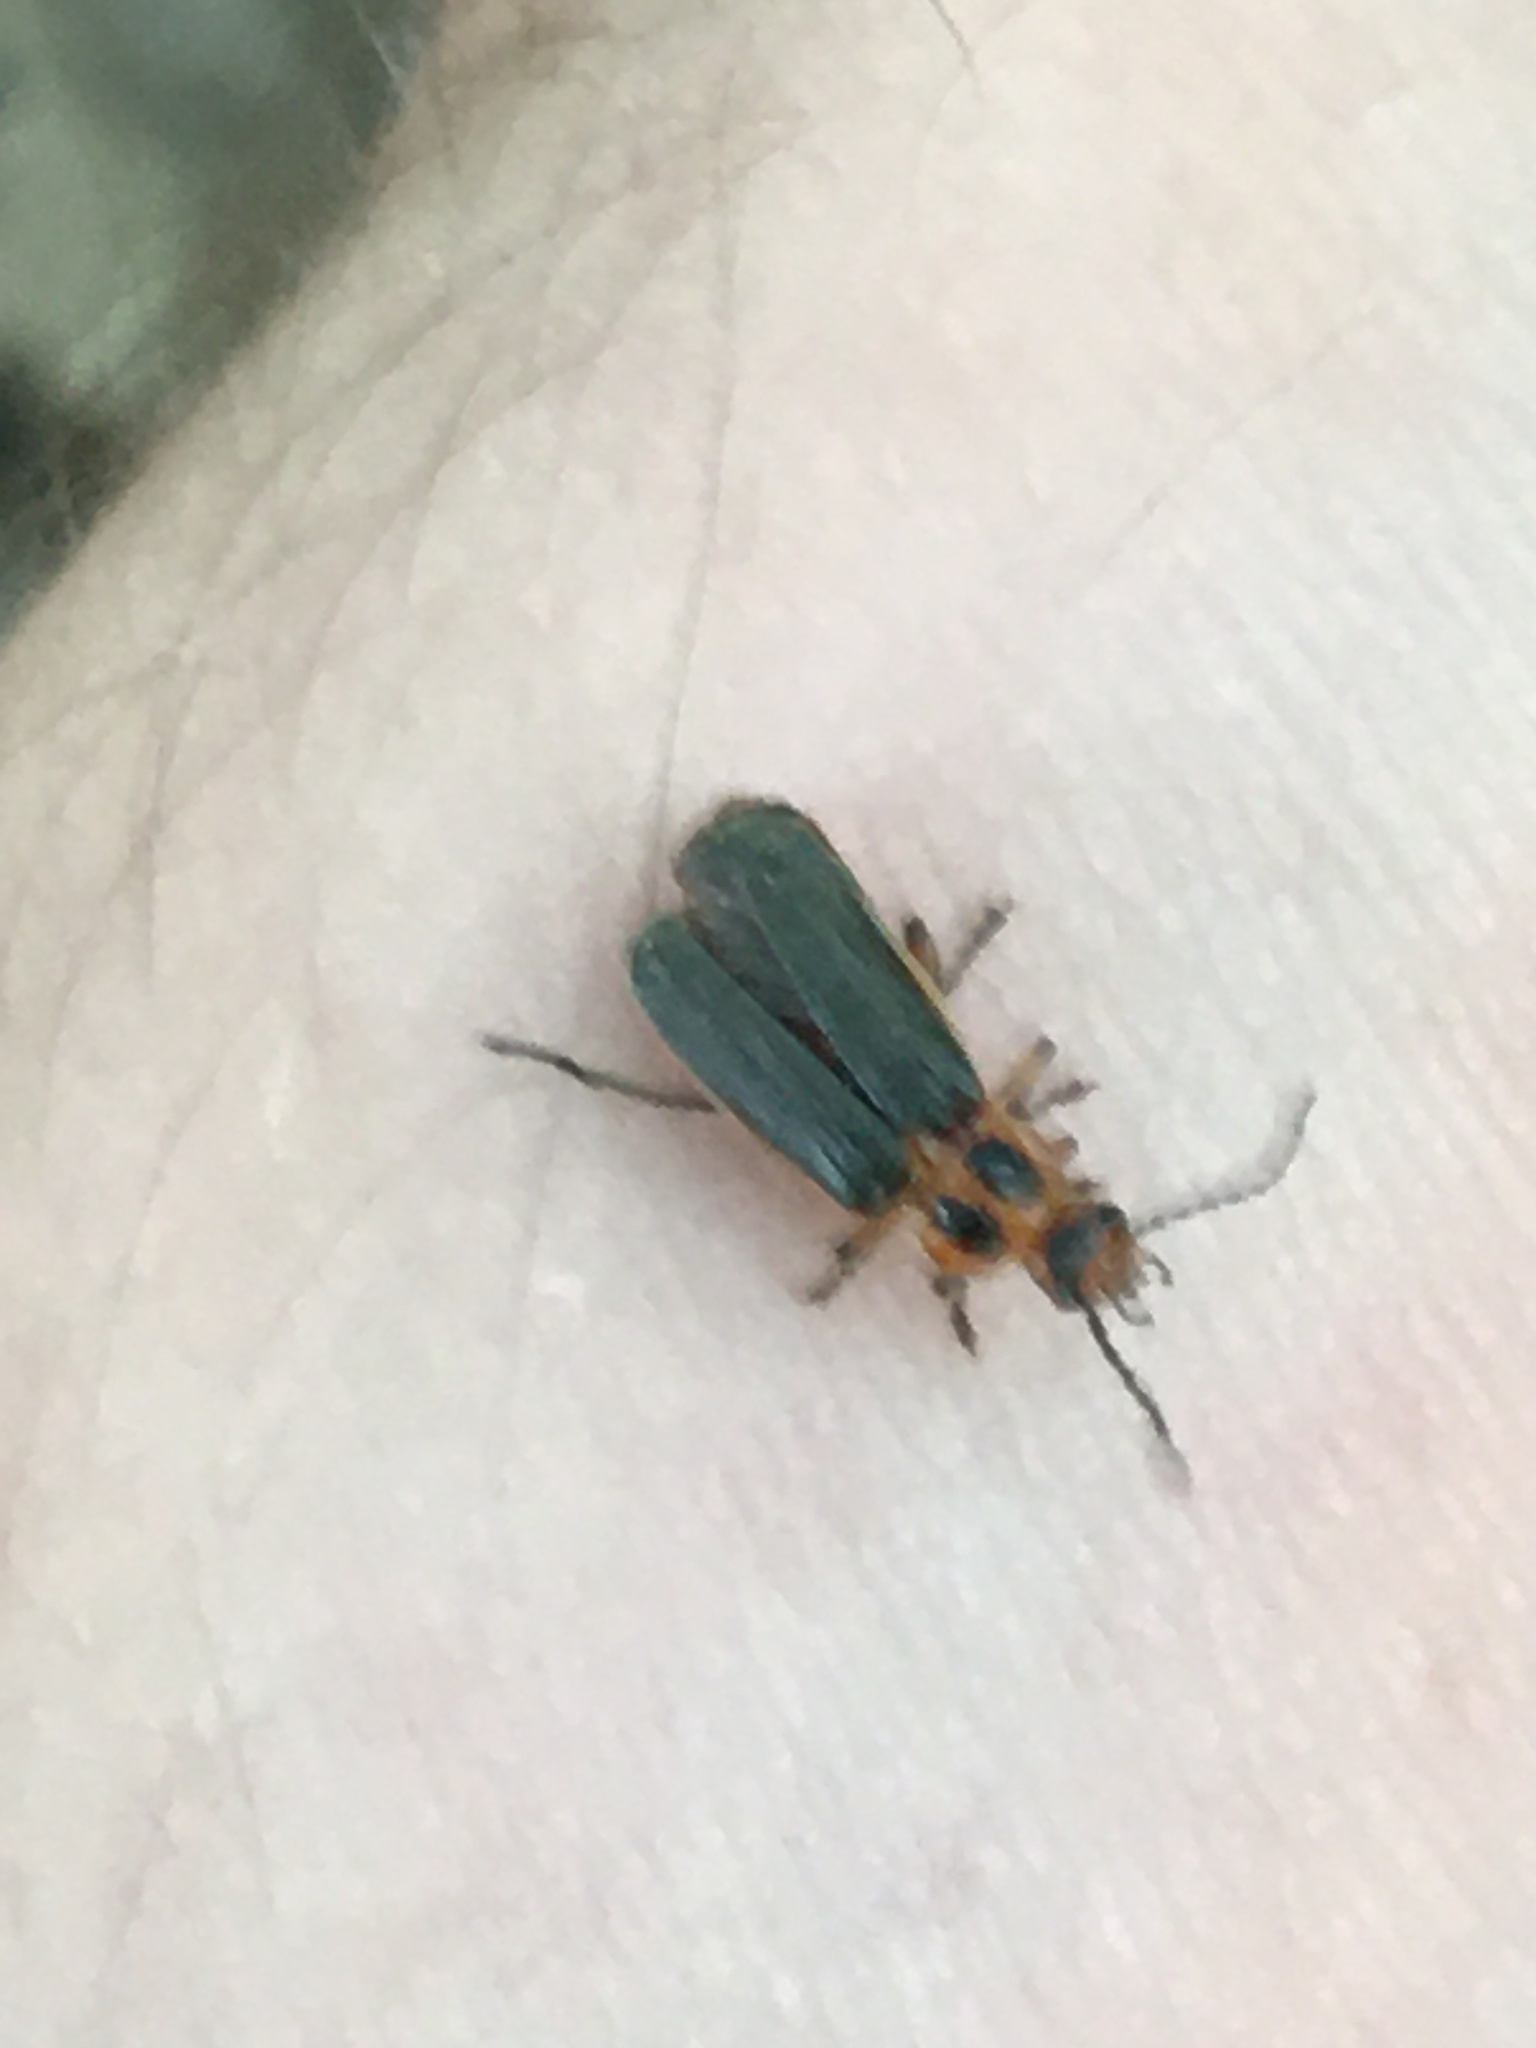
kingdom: Animalia
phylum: Arthropoda
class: Insecta
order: Coleoptera
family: Cantharidae
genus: Atalantycha
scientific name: Atalantycha bilineata
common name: Two-lined leatherwing
